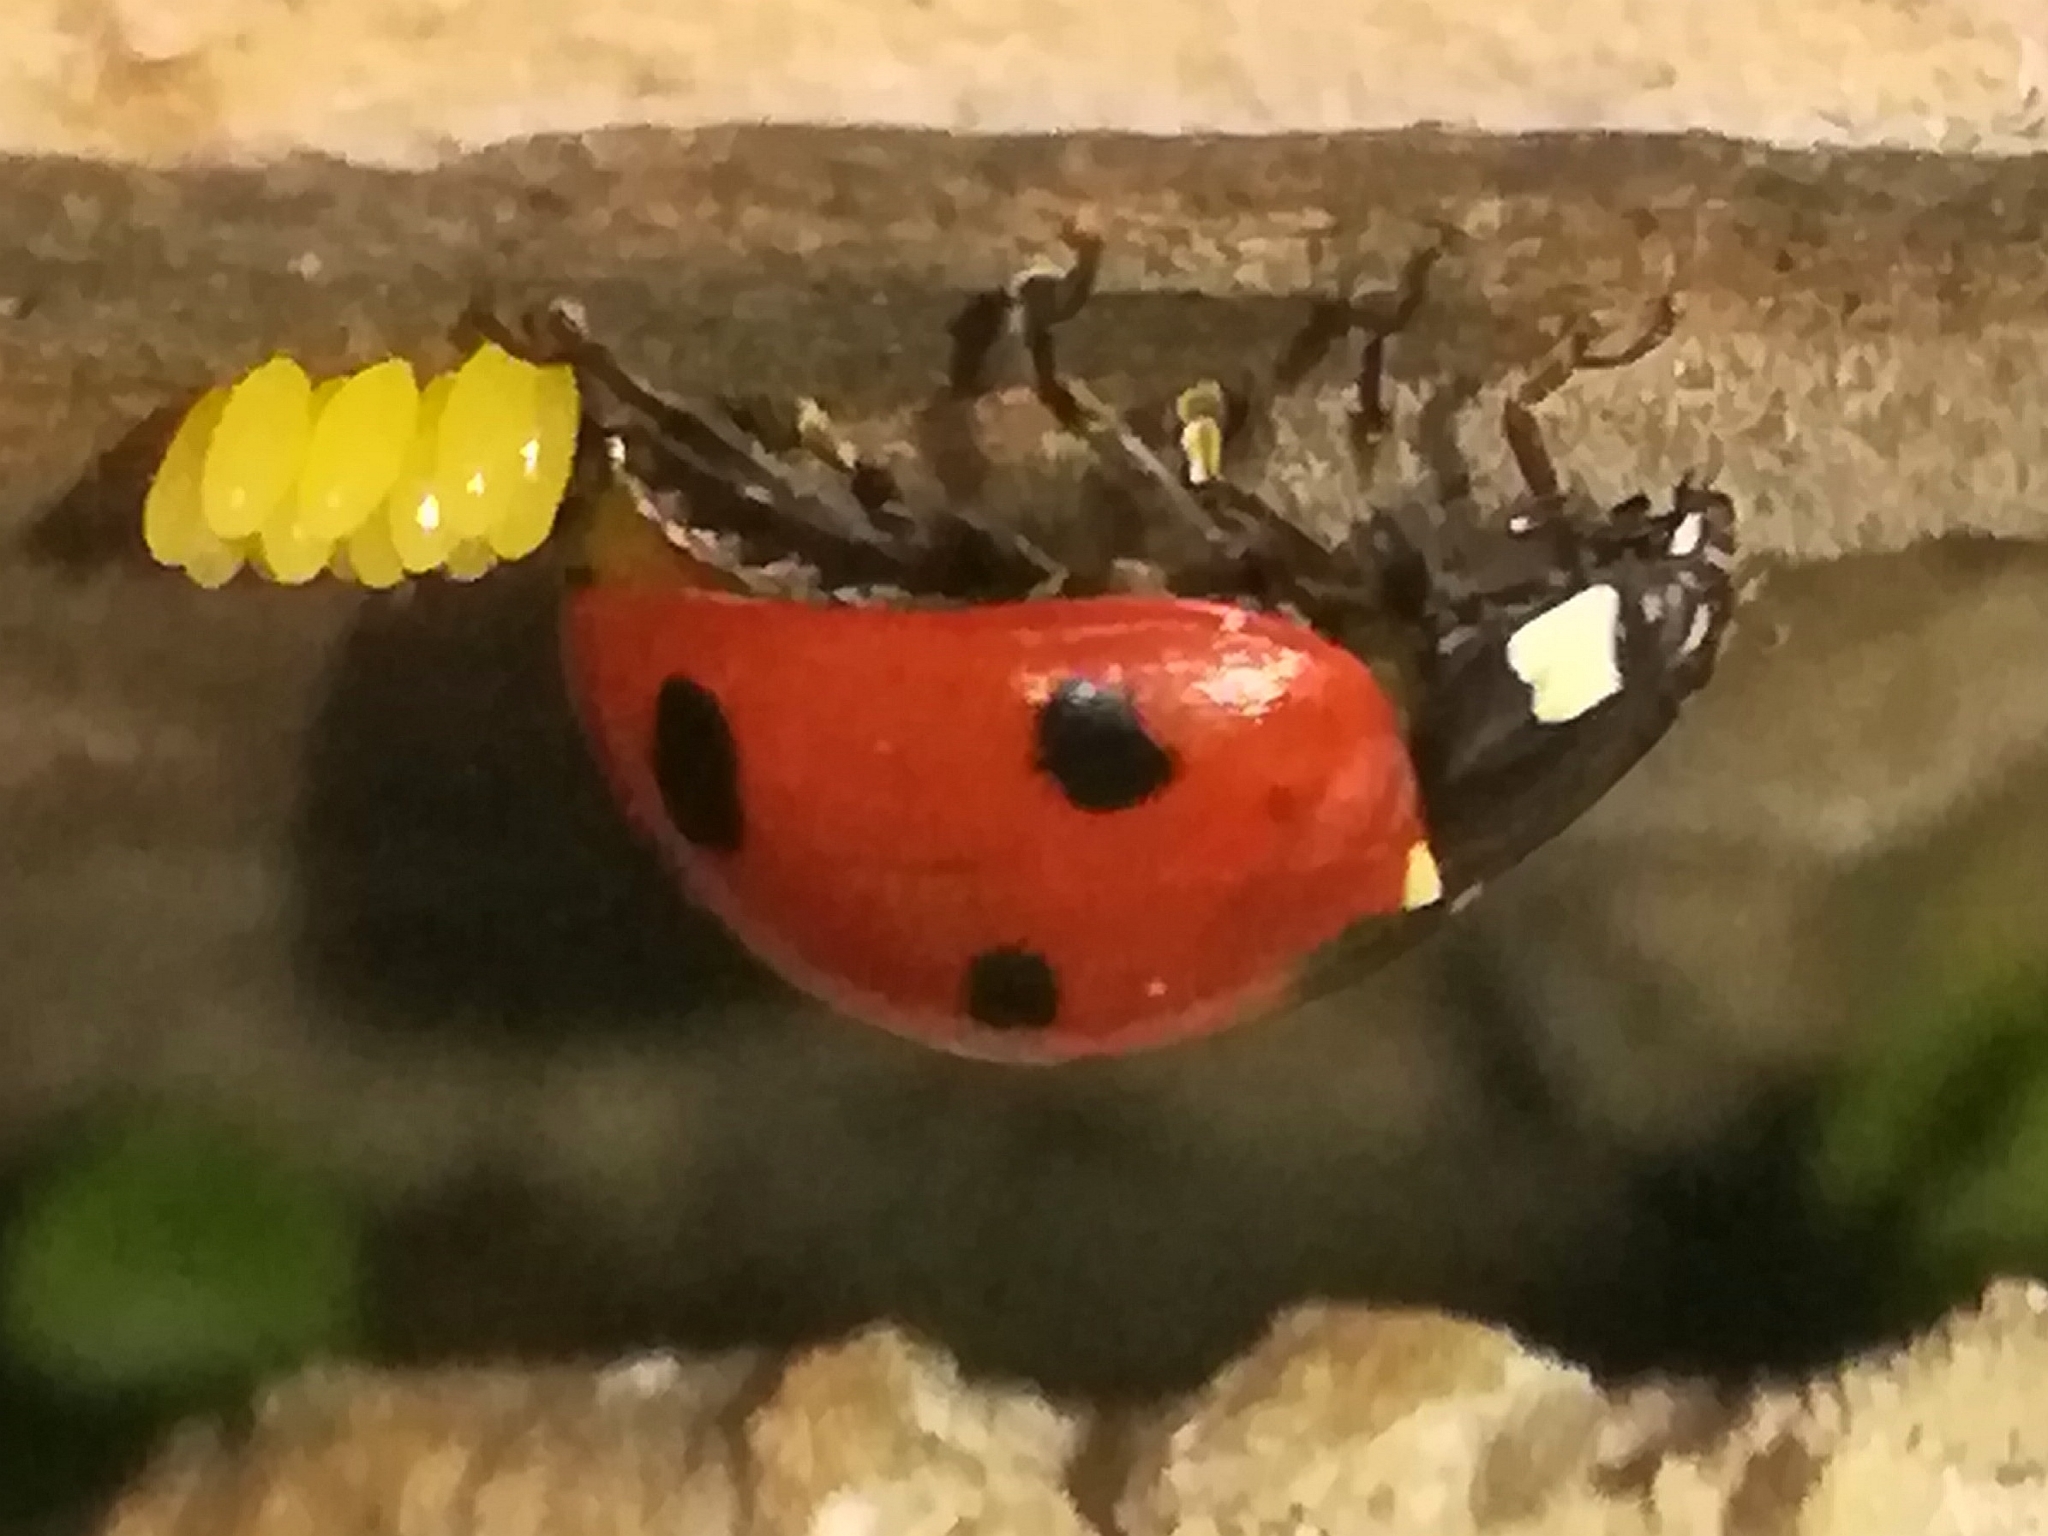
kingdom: Animalia
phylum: Arthropoda
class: Insecta
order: Coleoptera
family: Coccinellidae
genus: Coccinella
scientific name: Coccinella septempunctata
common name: Sevenspotted lady beetle
